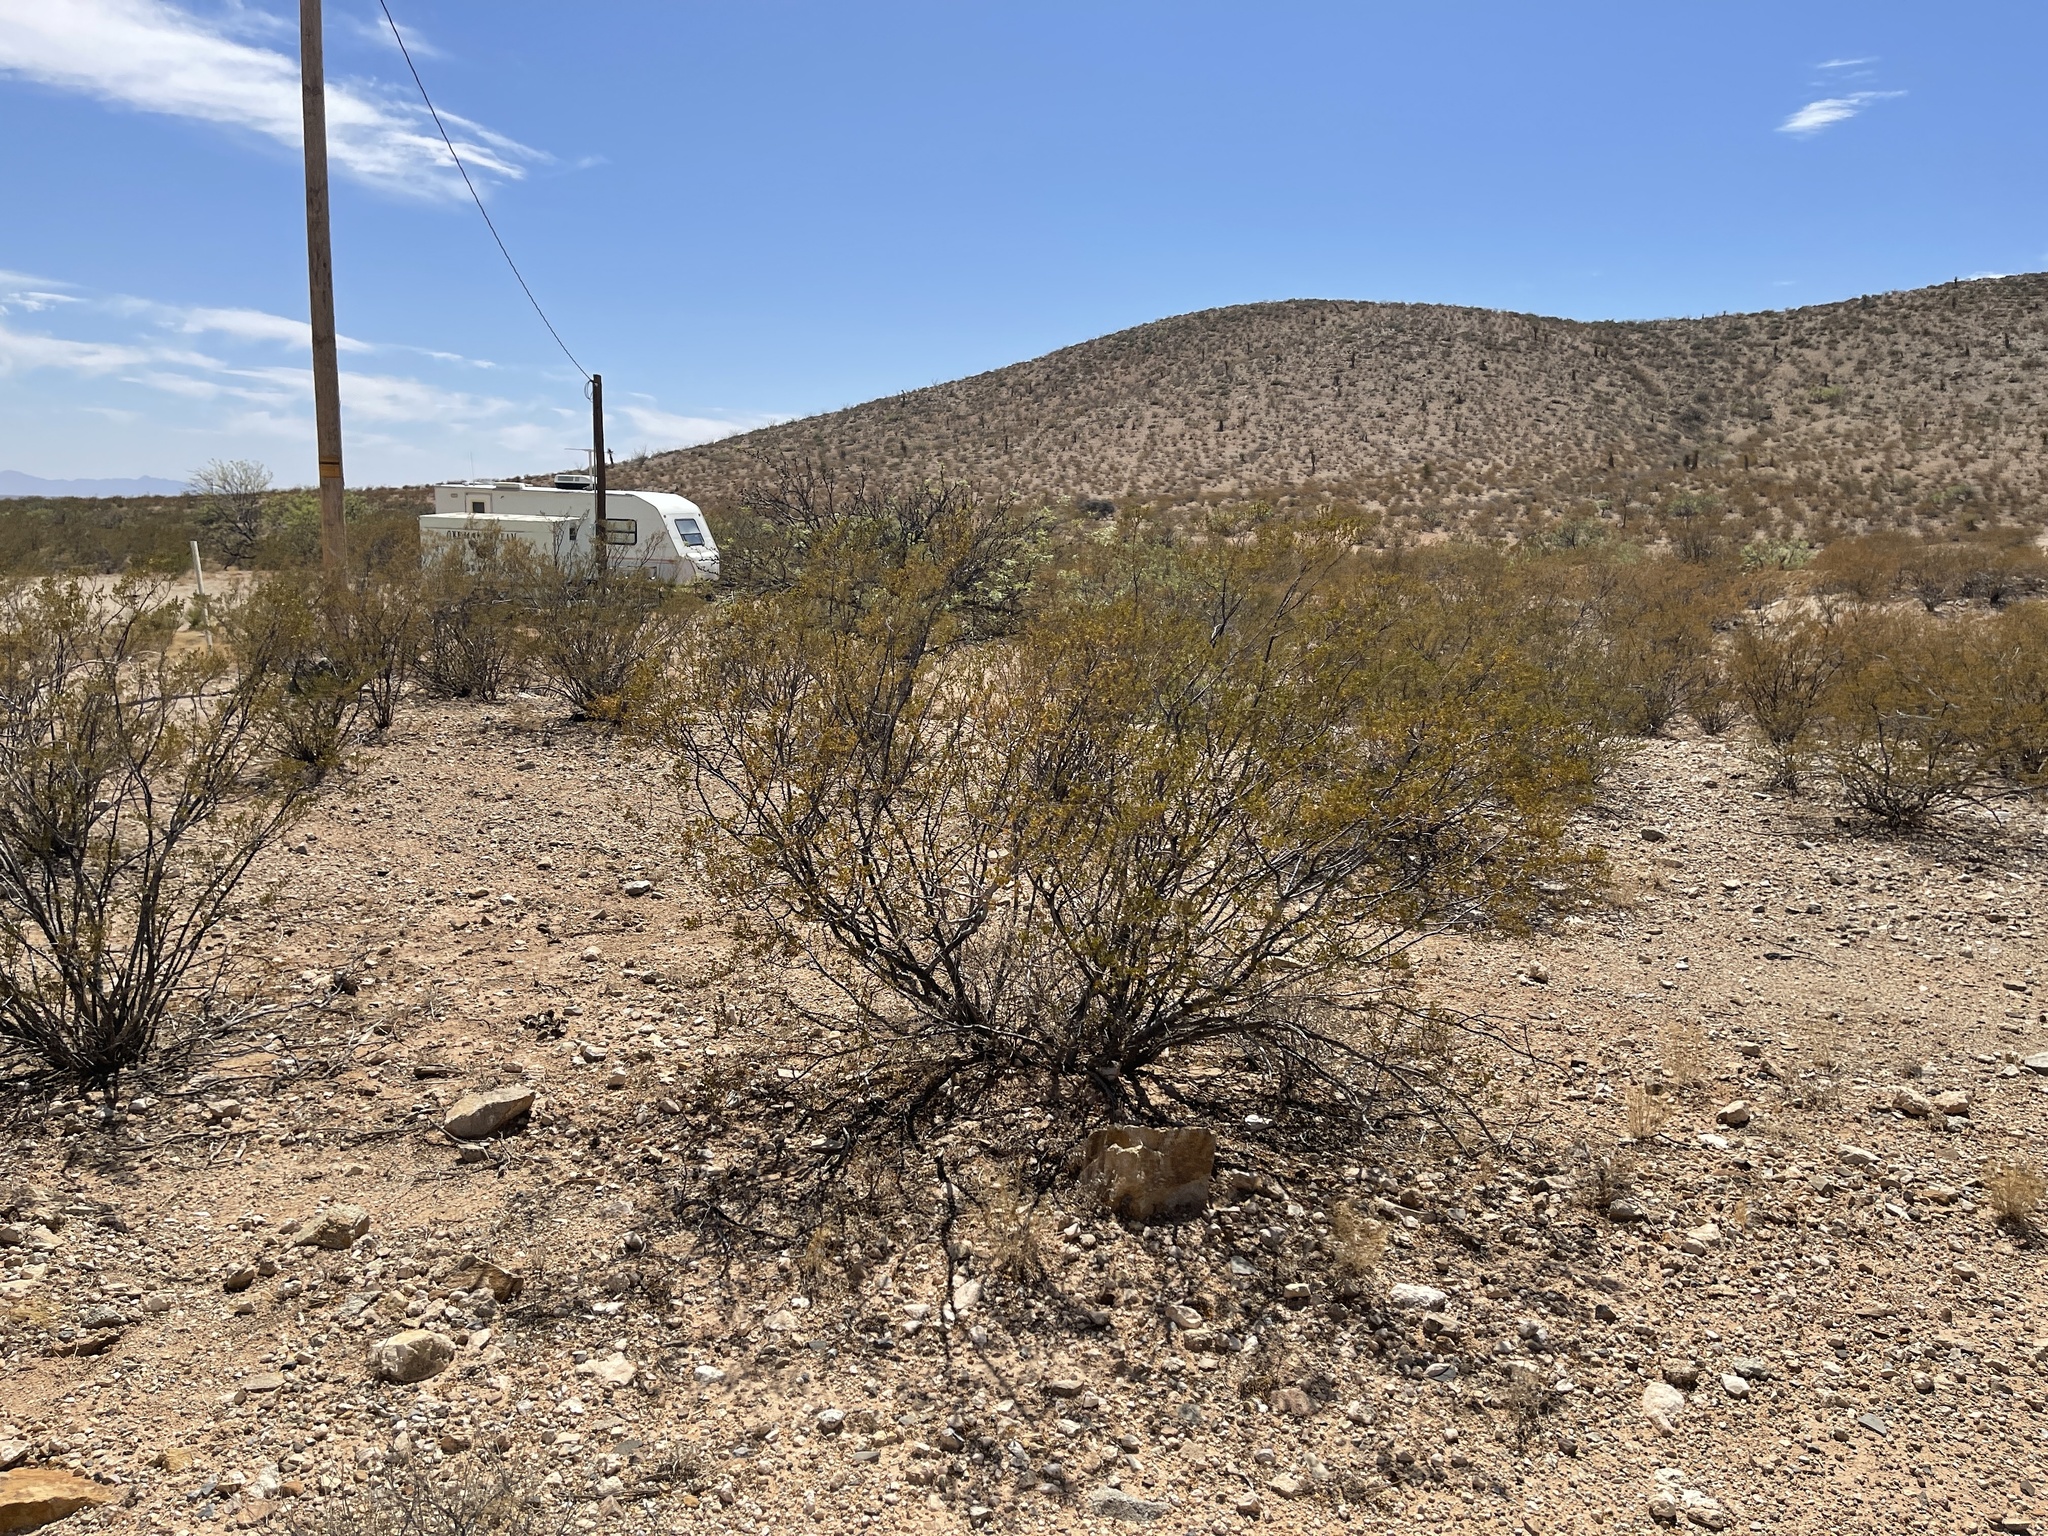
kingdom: Plantae
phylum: Tracheophyta
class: Magnoliopsida
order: Zygophyllales
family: Zygophyllaceae
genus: Larrea
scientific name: Larrea tridentata
